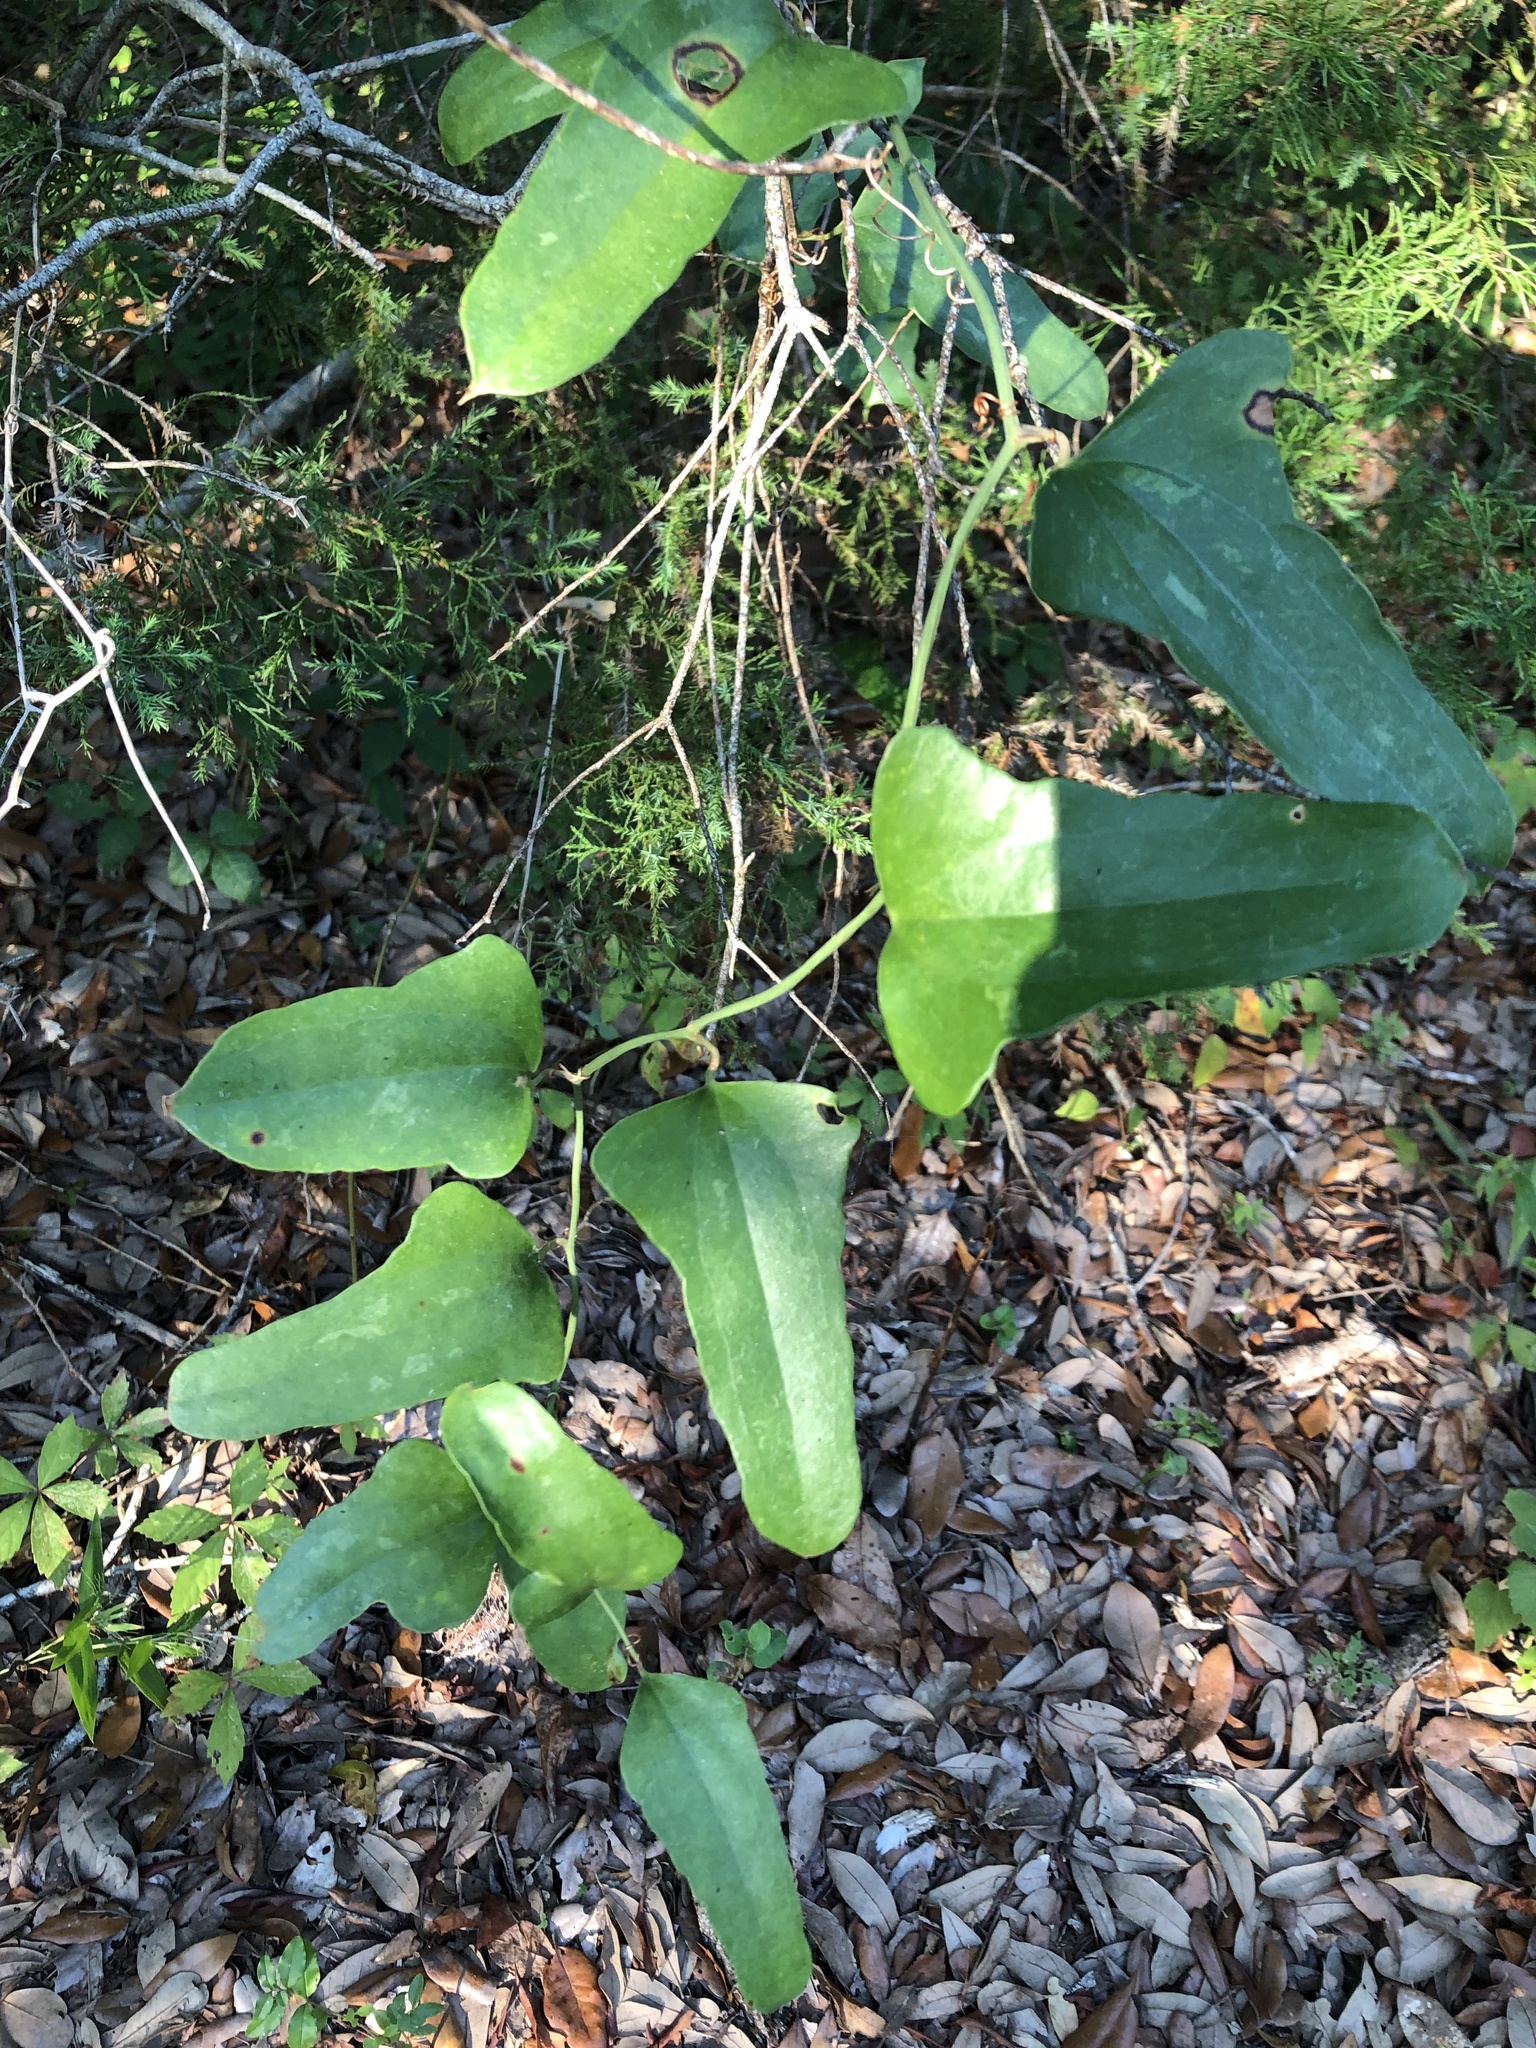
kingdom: Plantae
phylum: Tracheophyta
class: Liliopsida
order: Liliales
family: Smilacaceae
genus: Smilax
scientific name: Smilax auriculata
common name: Wild bamboo
